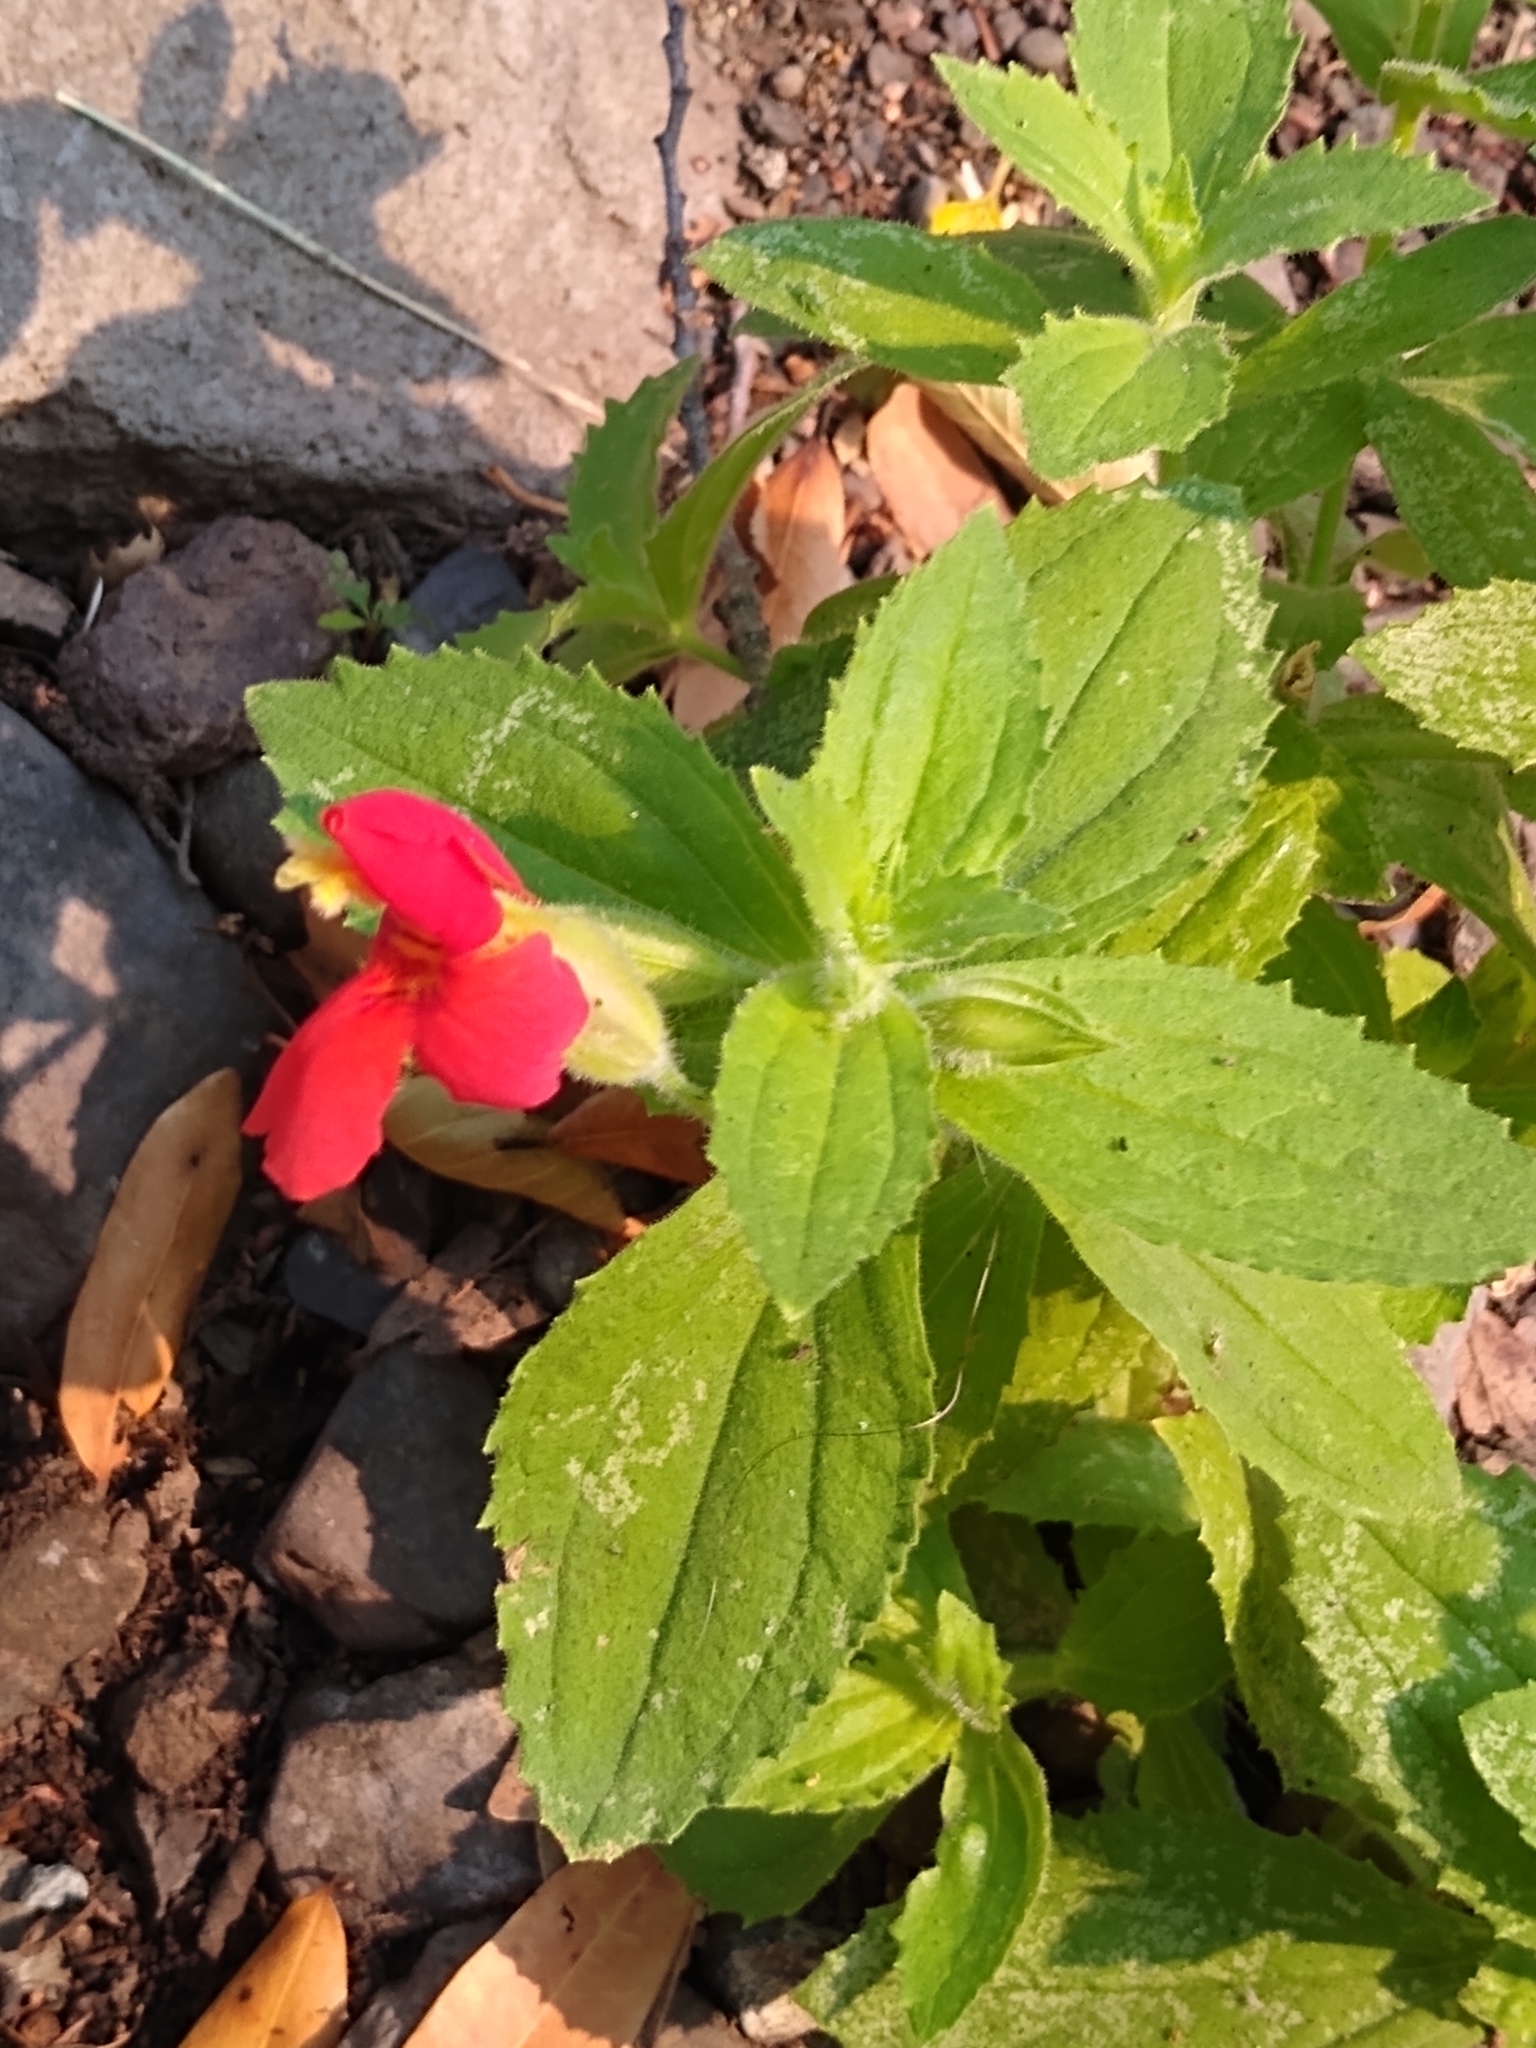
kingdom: Plantae
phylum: Tracheophyta
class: Magnoliopsida
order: Lamiales
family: Phrymaceae
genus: Erythranthe
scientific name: Erythranthe cardinalis
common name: Scarlet monkey-flower
